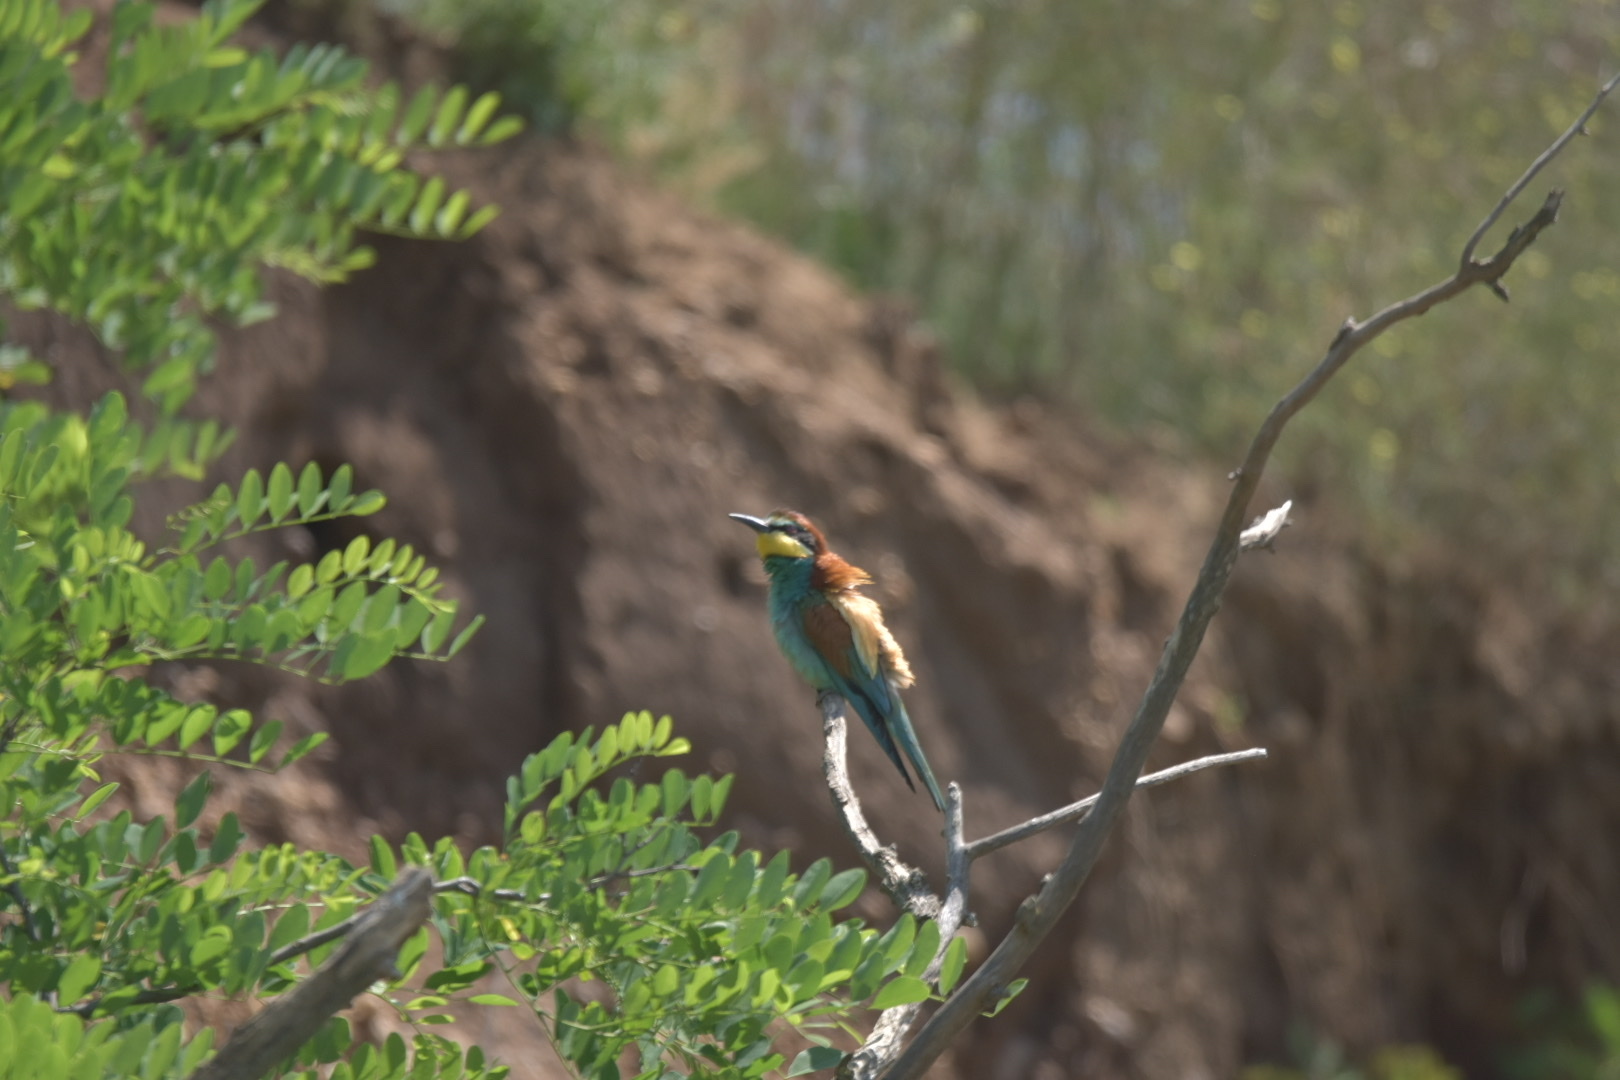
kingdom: Animalia
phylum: Chordata
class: Aves
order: Coraciiformes
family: Meropidae
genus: Merops
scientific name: Merops apiaster
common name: European bee-eater
